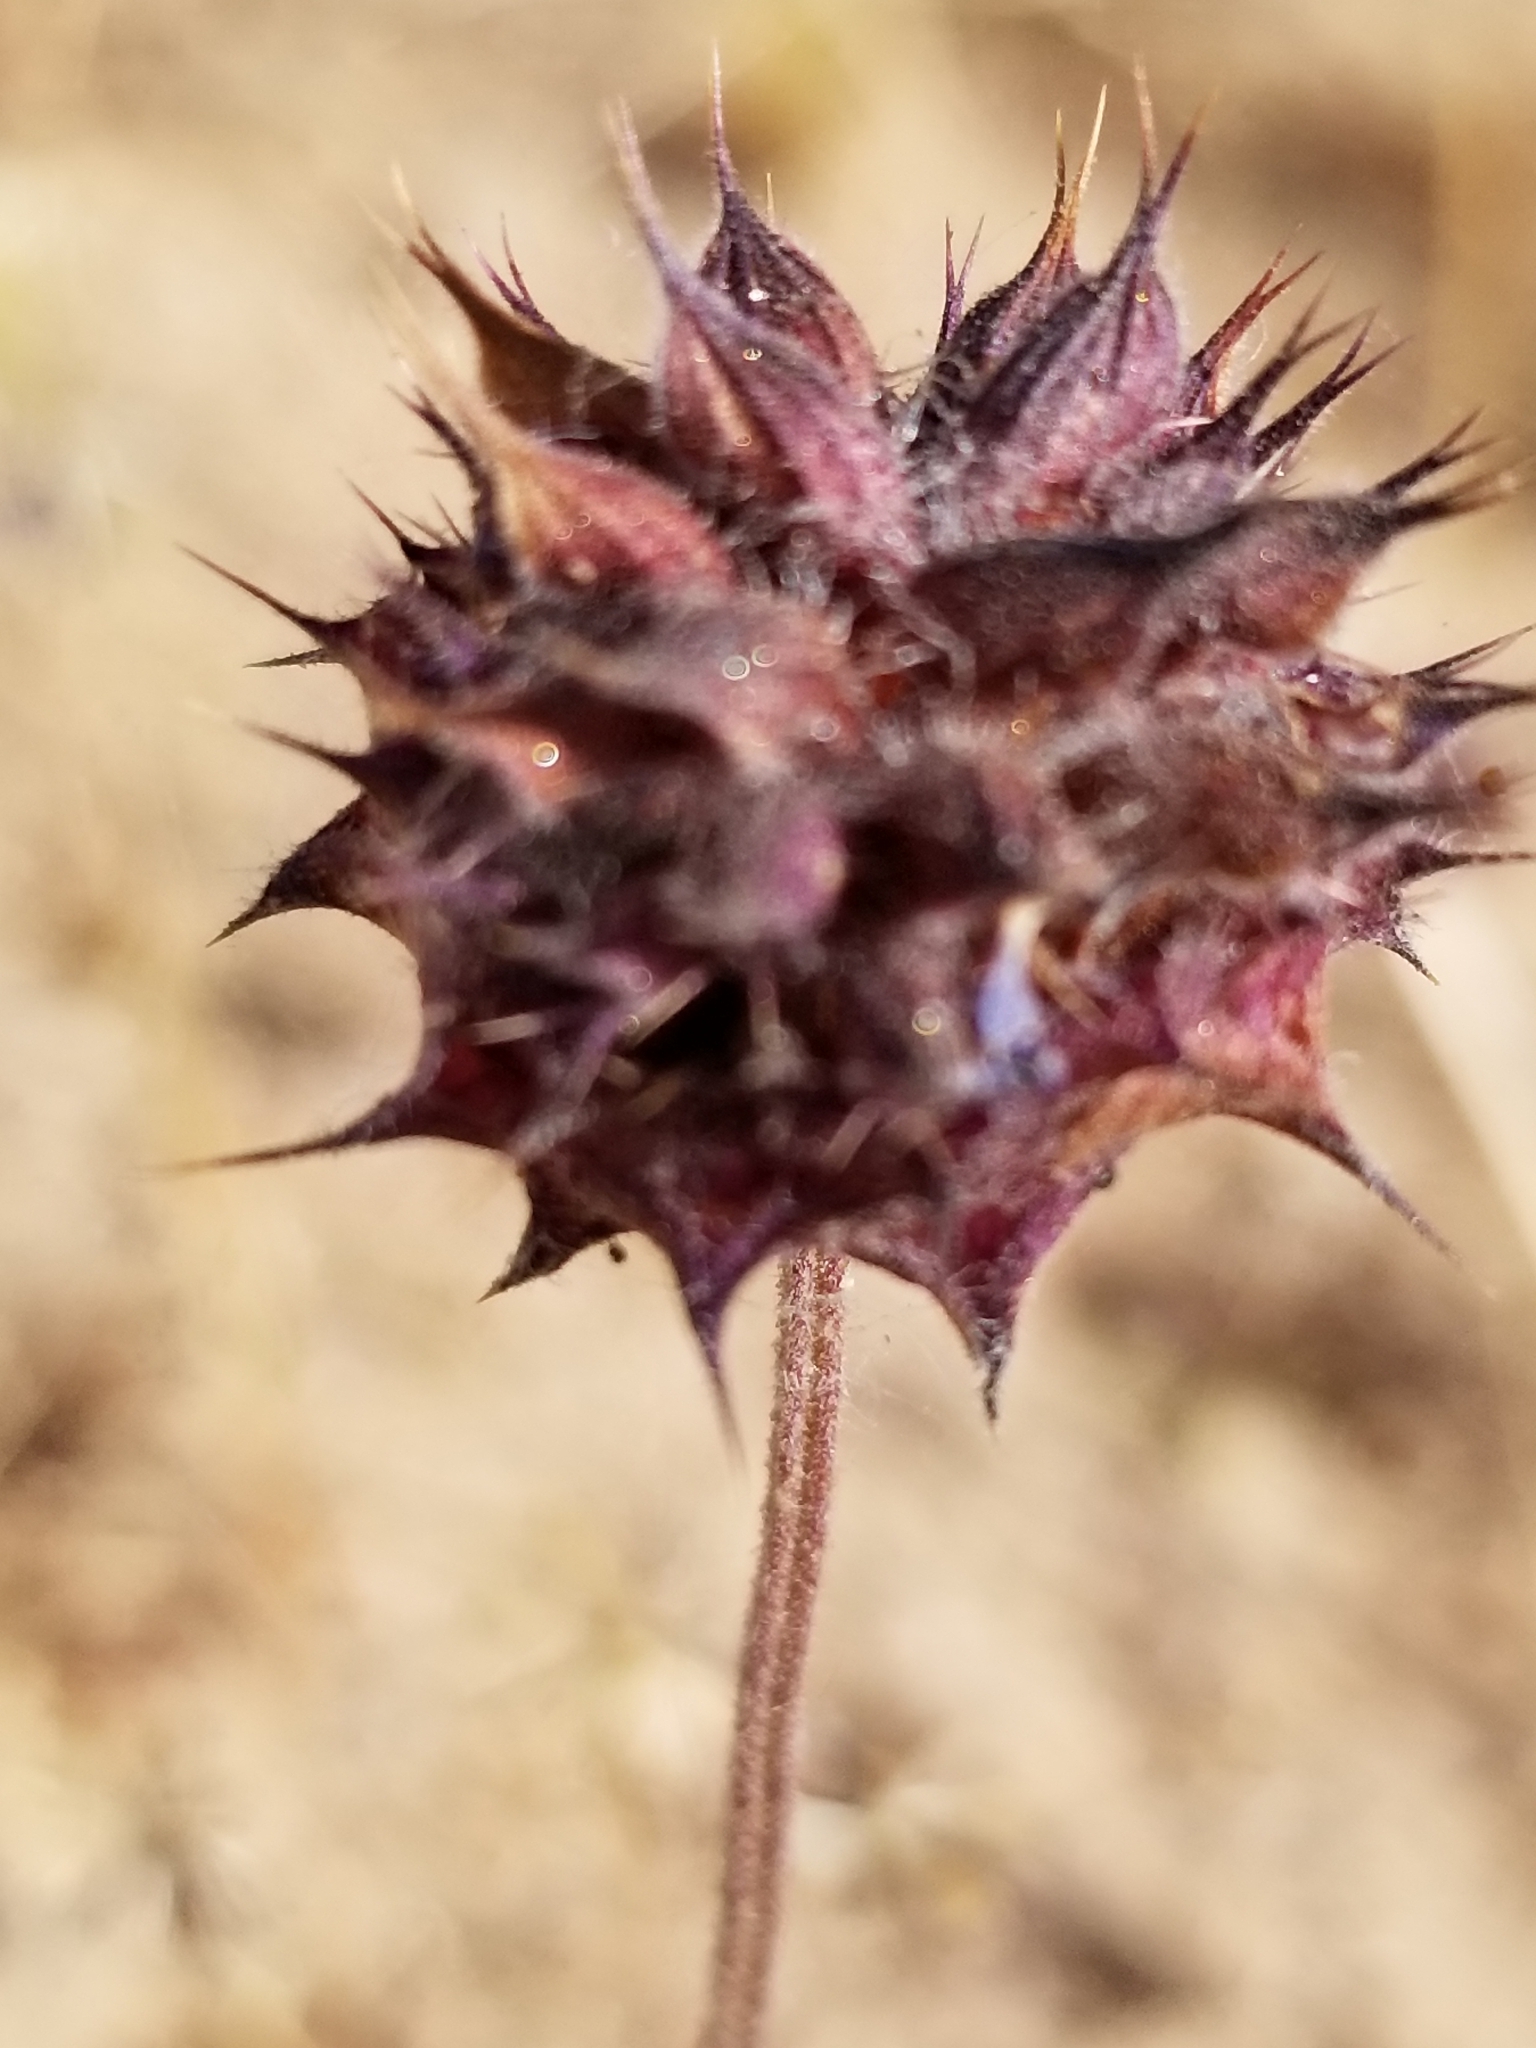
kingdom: Plantae
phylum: Tracheophyta
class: Magnoliopsida
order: Lamiales
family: Lamiaceae
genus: Salvia
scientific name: Salvia columbariae
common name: Chia
